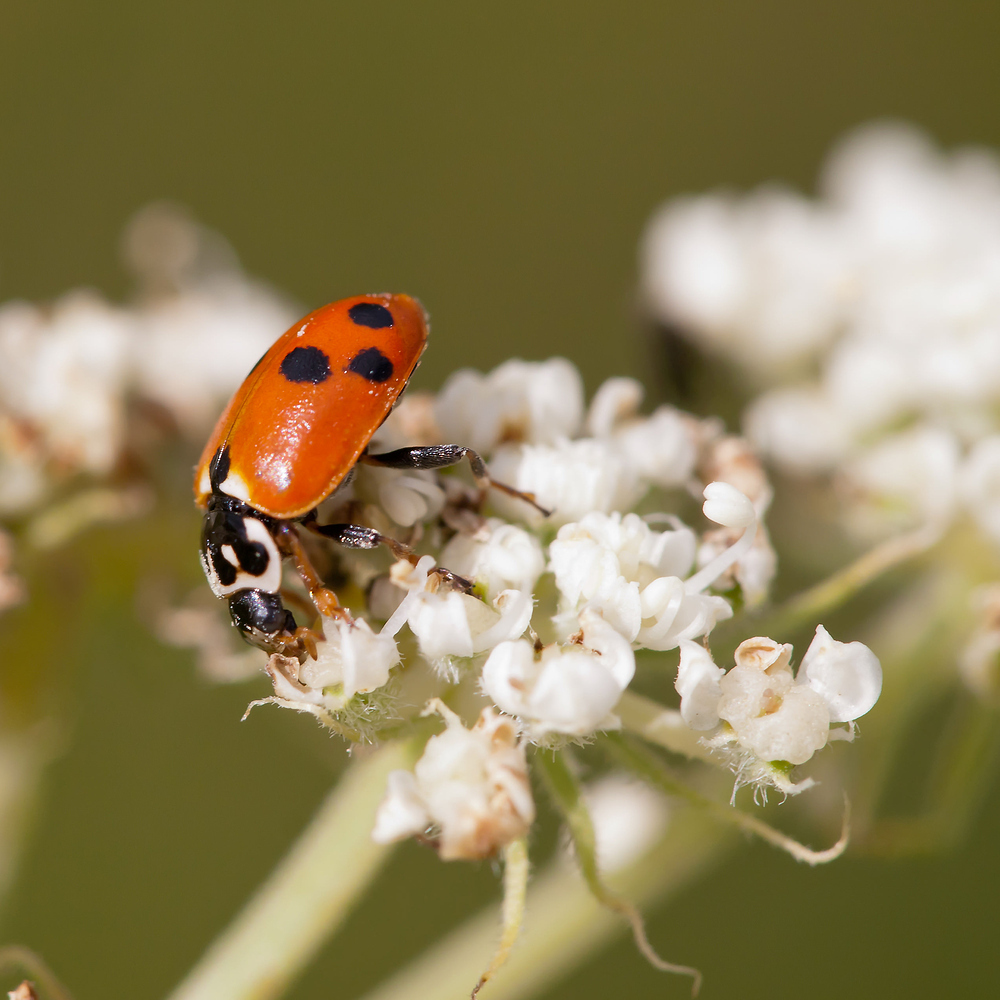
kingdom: Animalia
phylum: Arthropoda
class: Insecta
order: Coleoptera
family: Coccinellidae
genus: Hippodamia
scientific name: Hippodamia variegata
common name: Ladybird beetle
